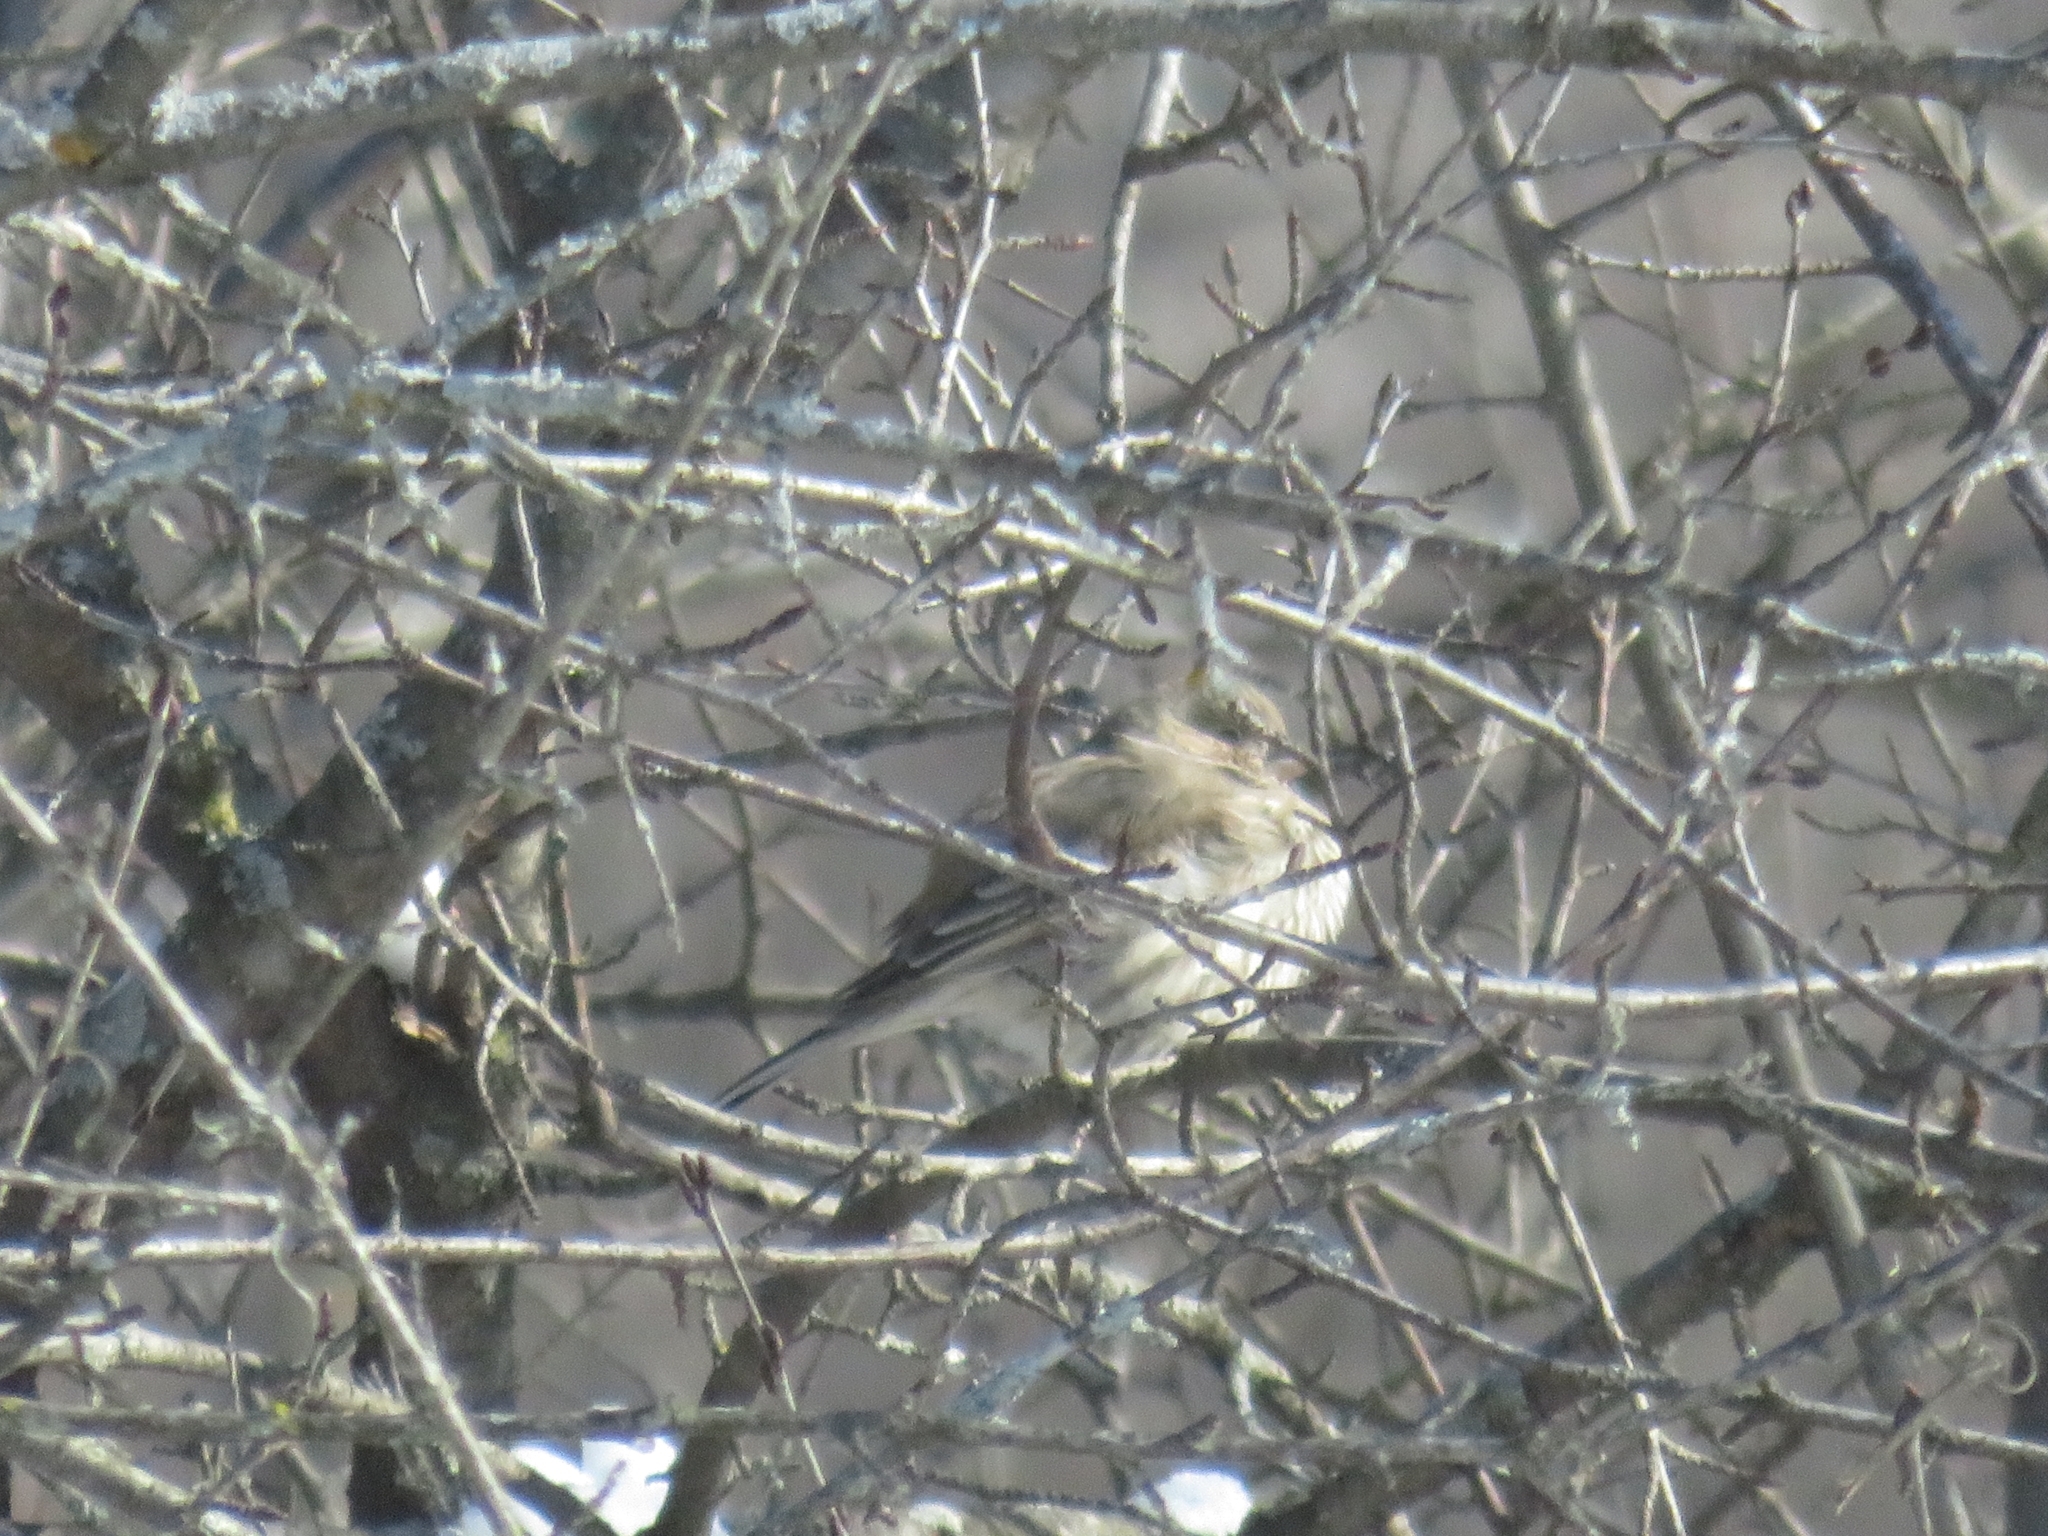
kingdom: Animalia
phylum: Chordata
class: Aves
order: Passeriformes
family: Fringillidae
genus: Haemorhous
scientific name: Haemorhous mexicanus
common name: House finch
